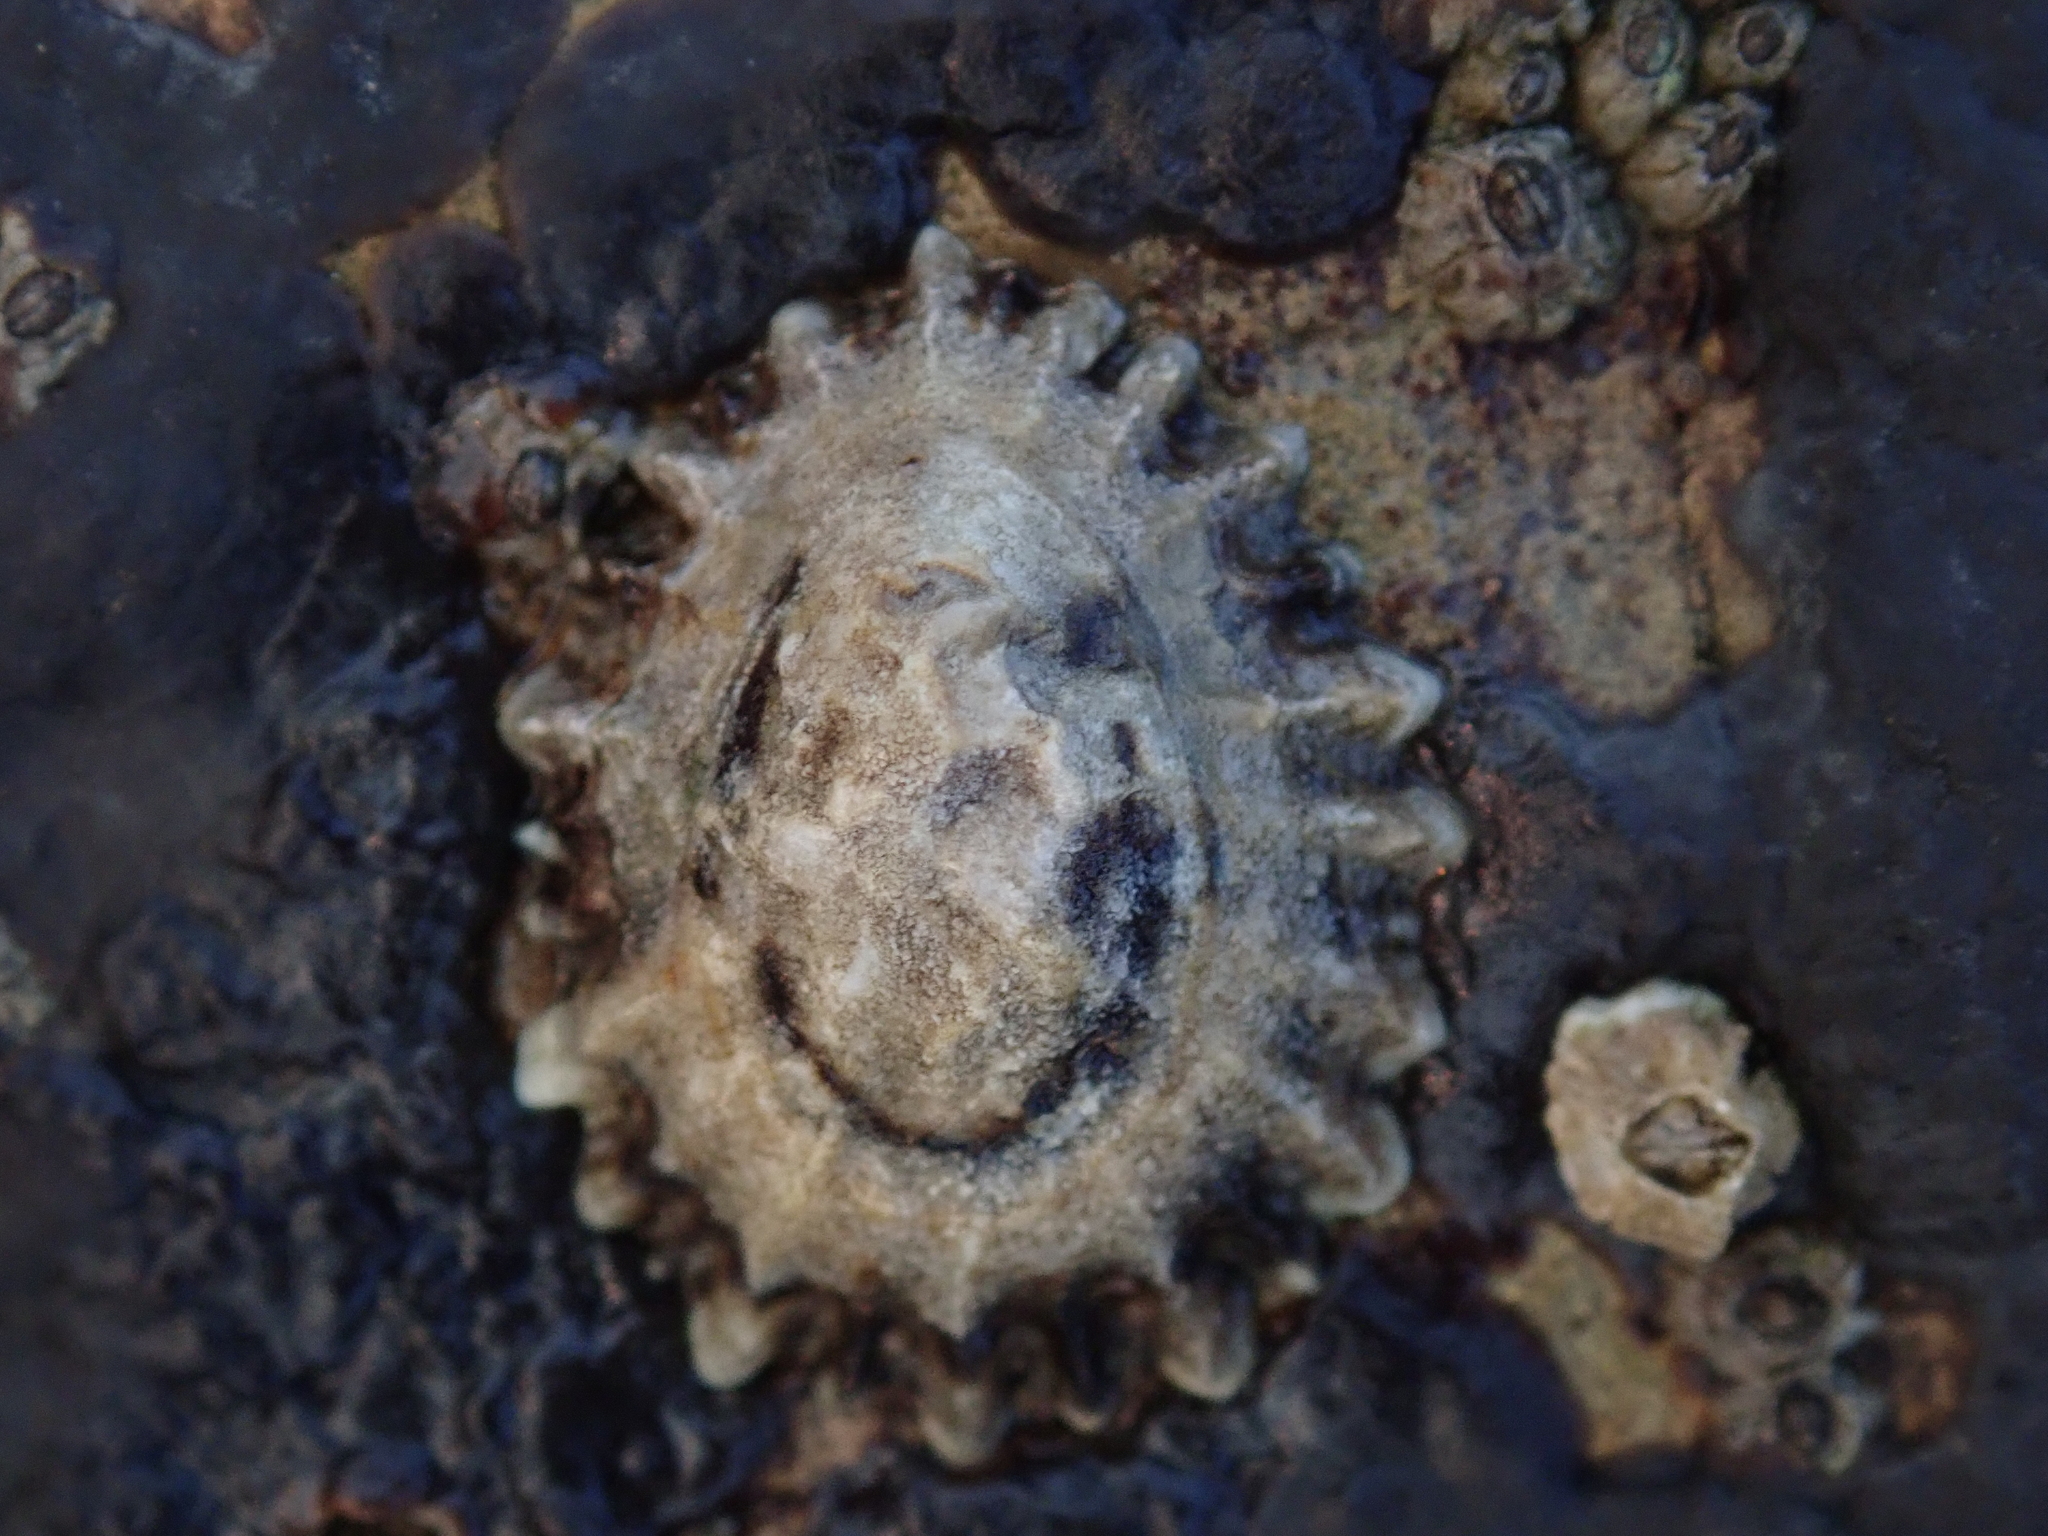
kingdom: Animalia
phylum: Mollusca
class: Gastropoda
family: Lottiidae
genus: Lottia
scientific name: Lottia scabra
